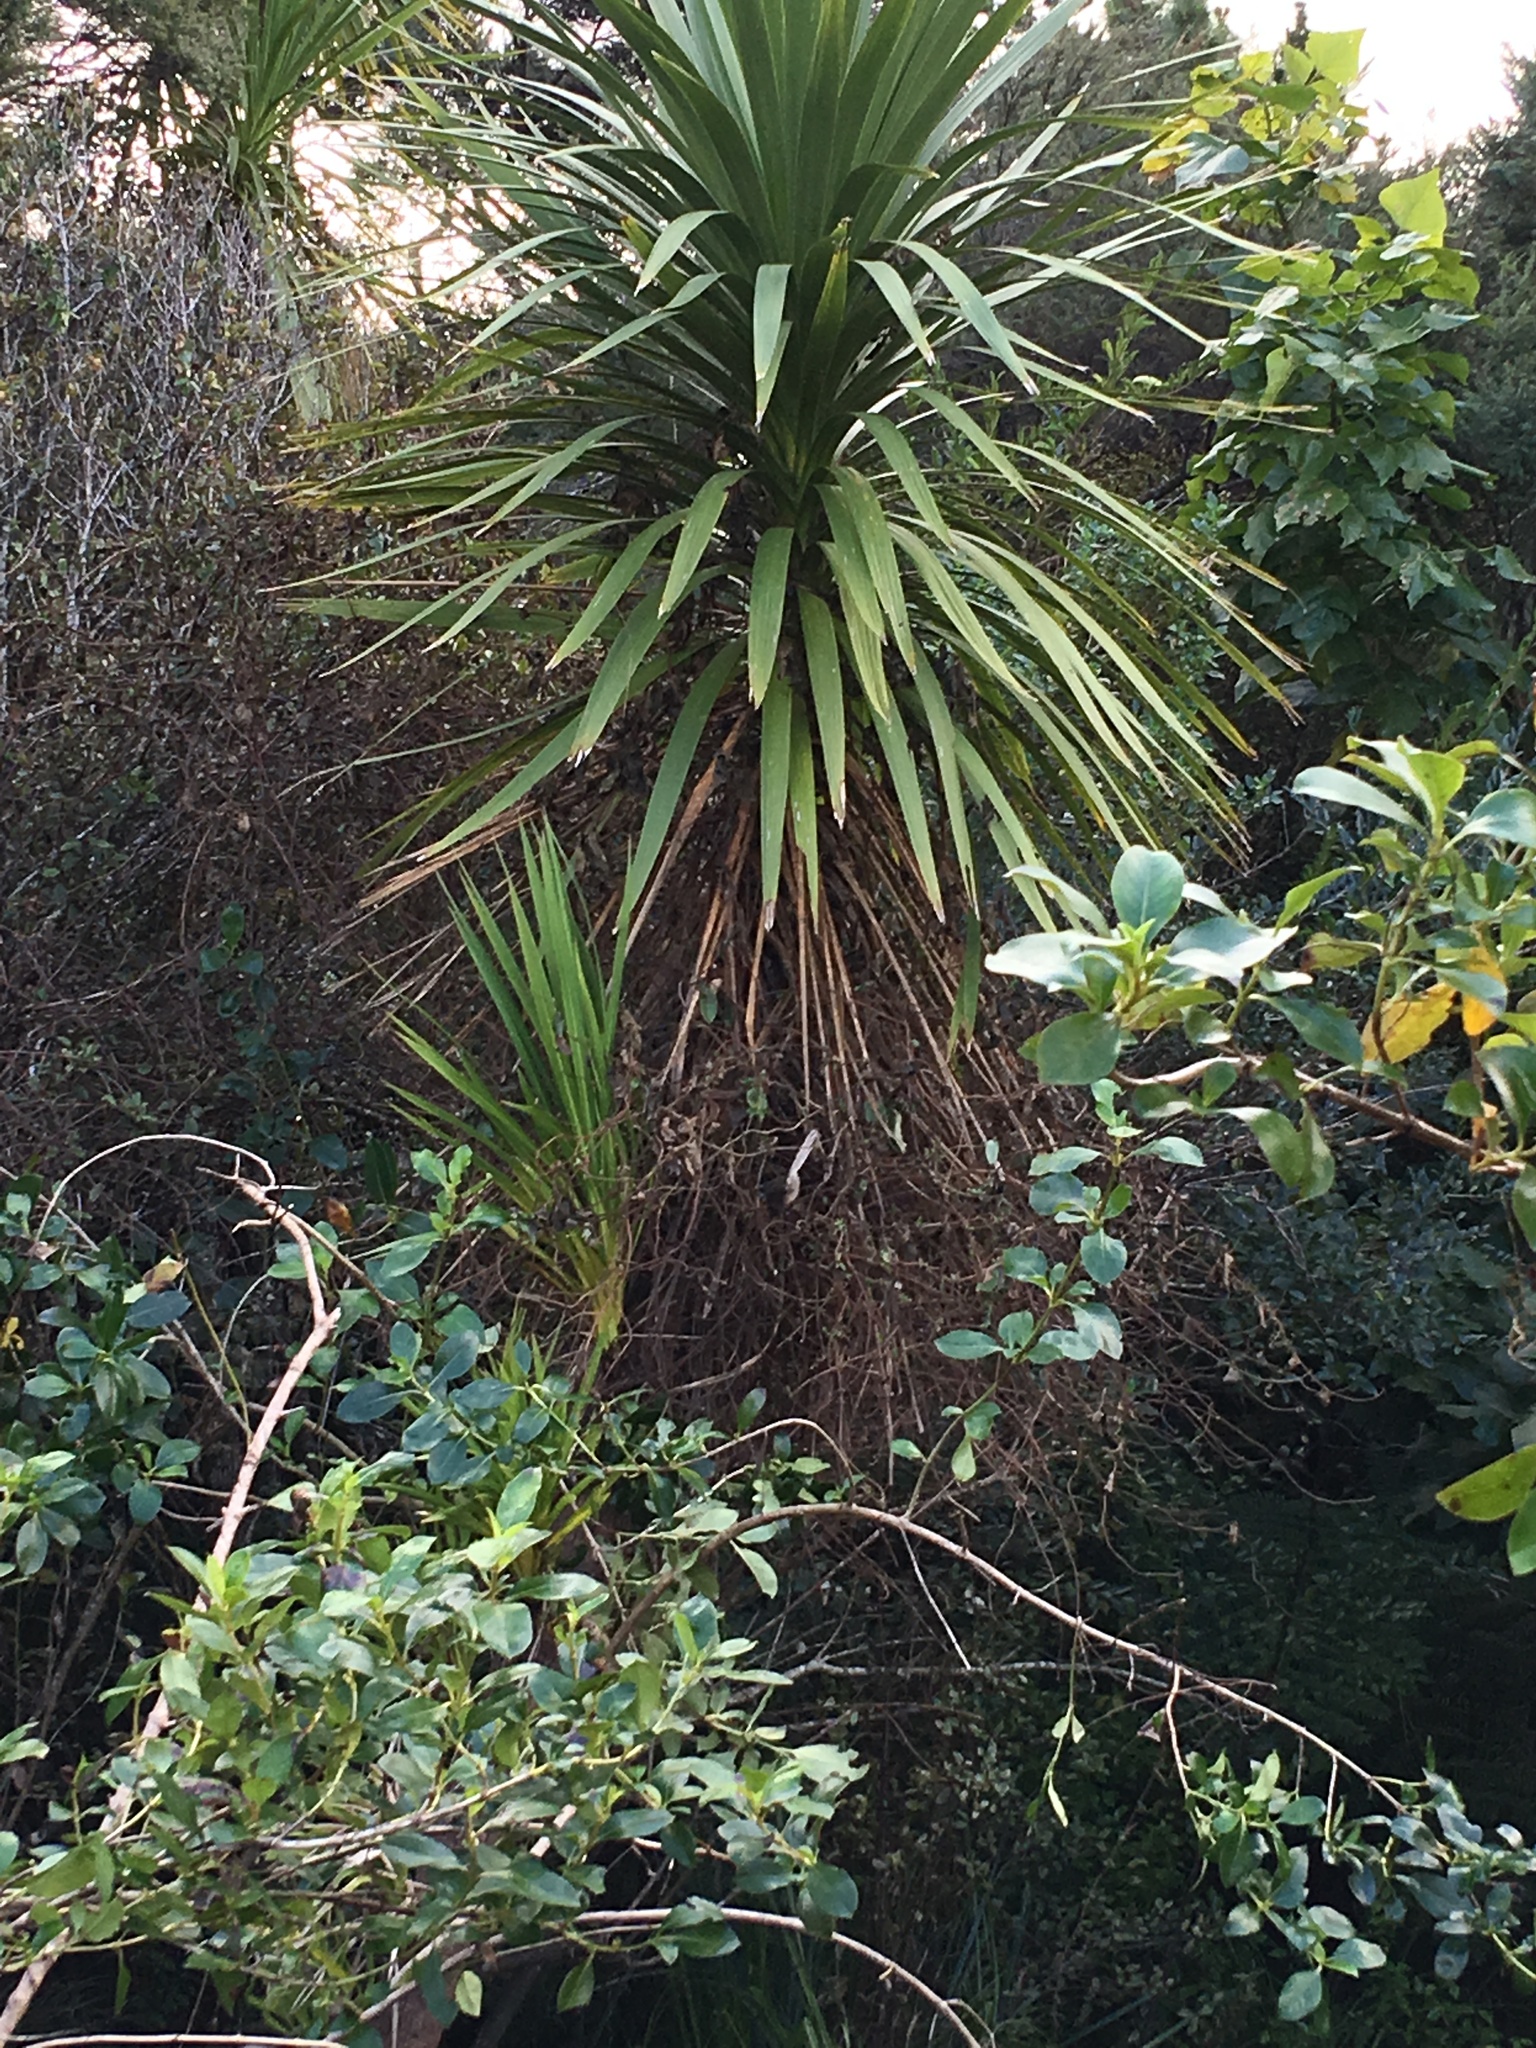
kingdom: Plantae
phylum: Tracheophyta
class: Liliopsida
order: Asparagales
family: Asparagaceae
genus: Cordyline
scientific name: Cordyline australis
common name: Cabbage-palm
